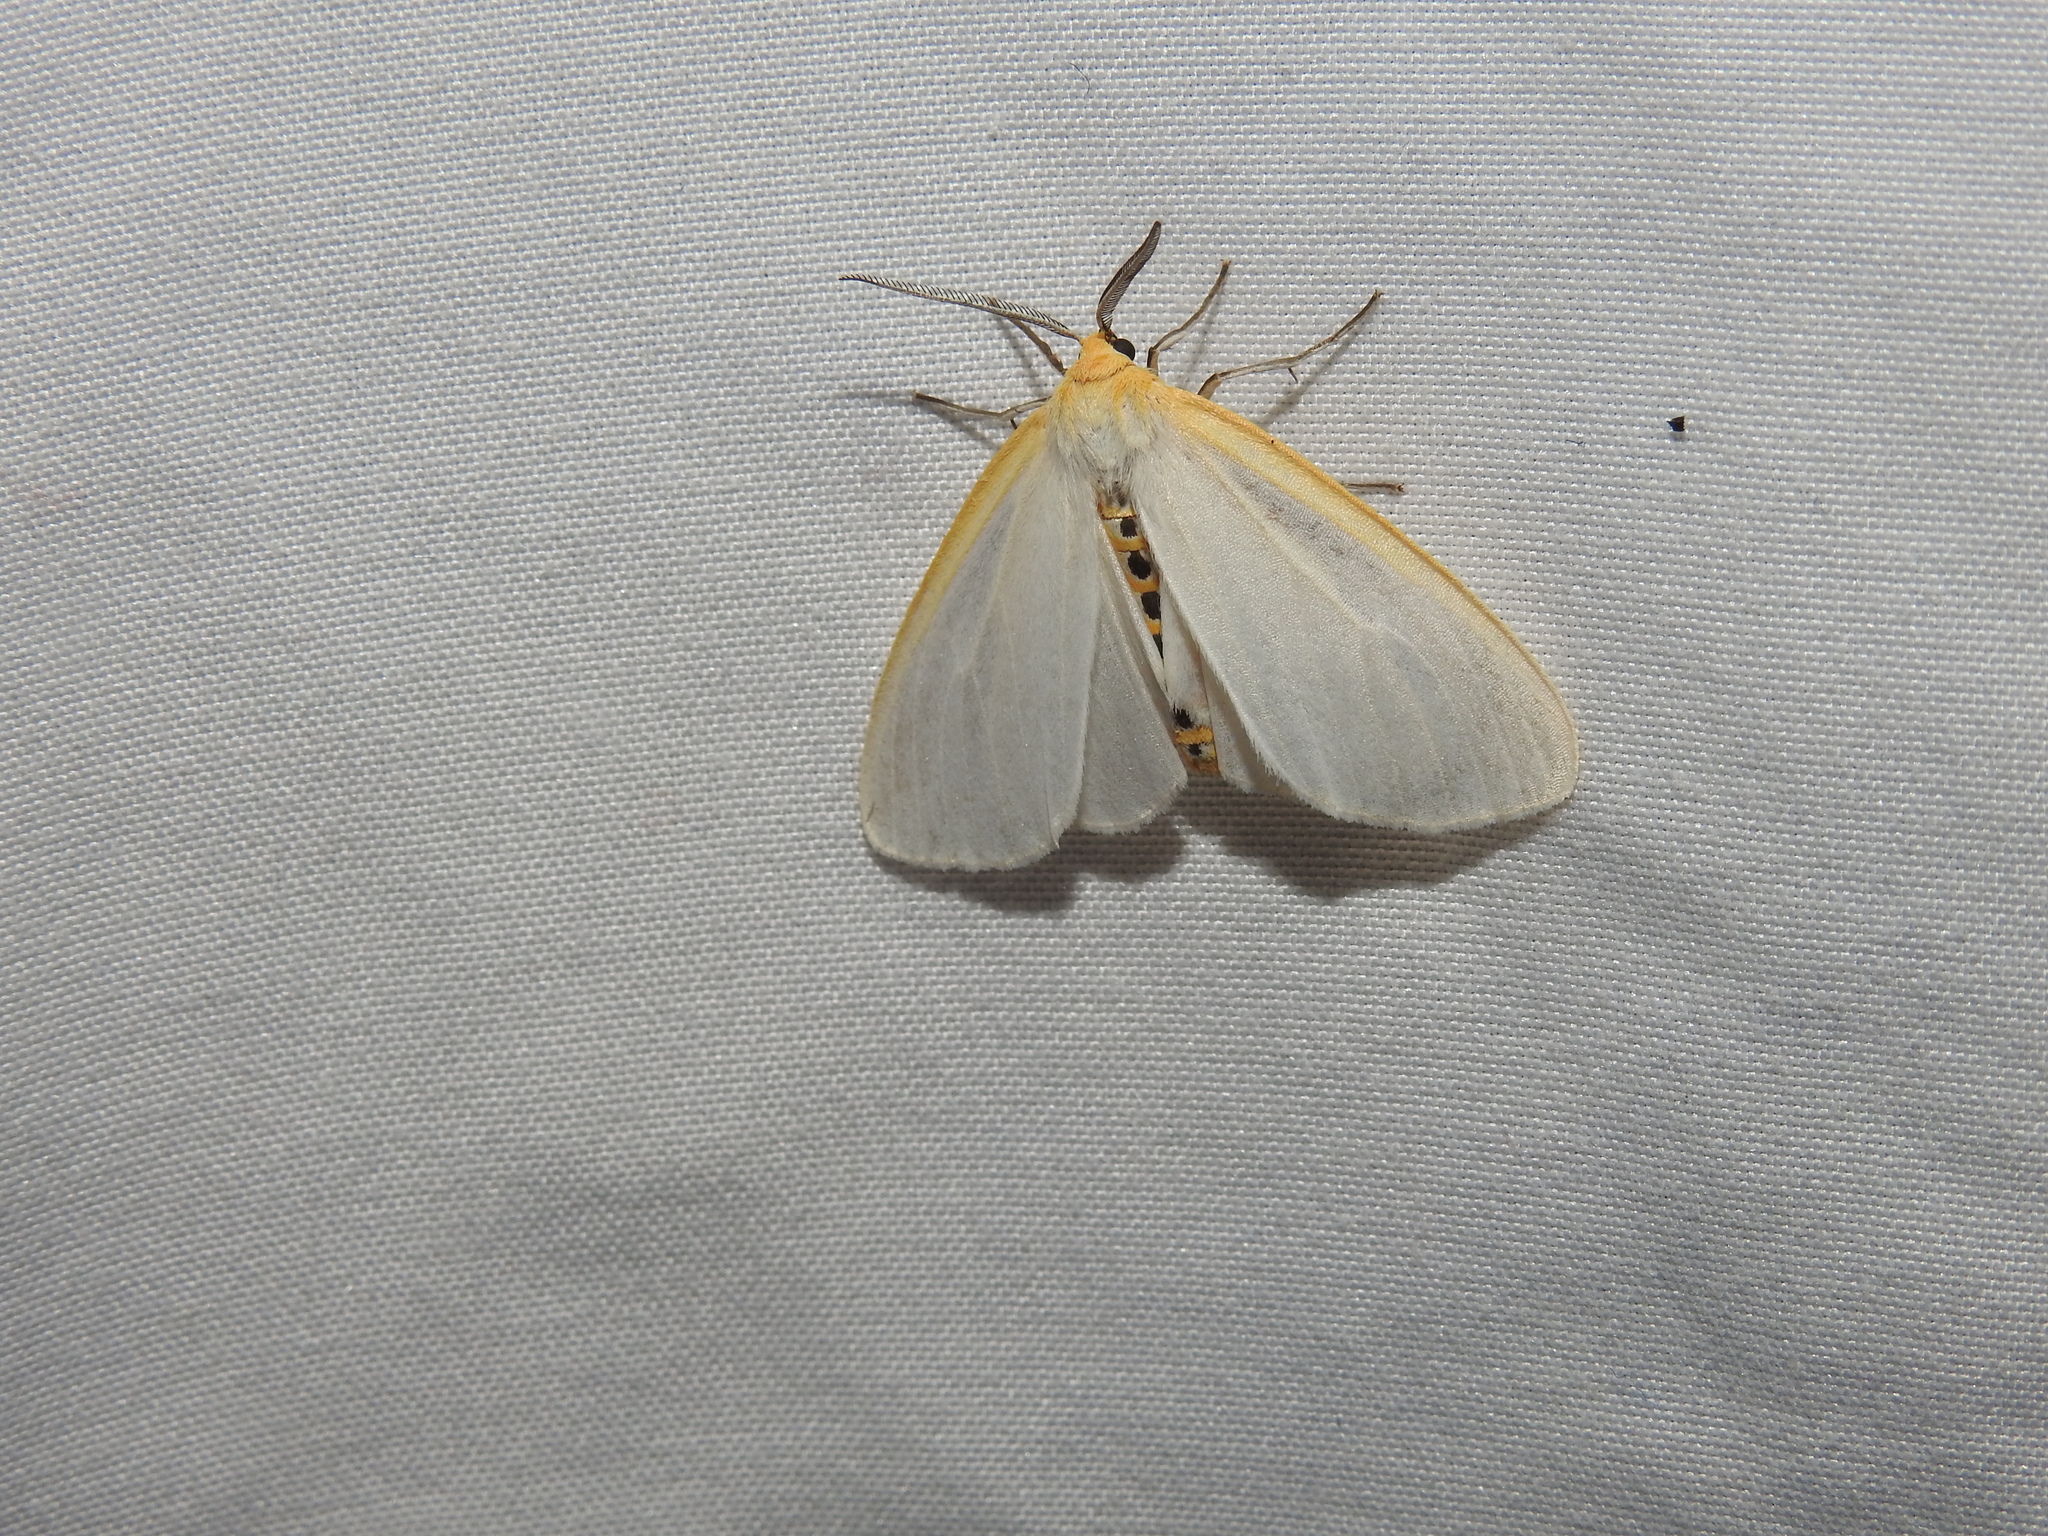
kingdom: Animalia
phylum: Arthropoda
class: Insecta
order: Lepidoptera
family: Erebidae
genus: Cycnia
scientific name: Cycnia tenera
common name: Delicate cycnia moth
